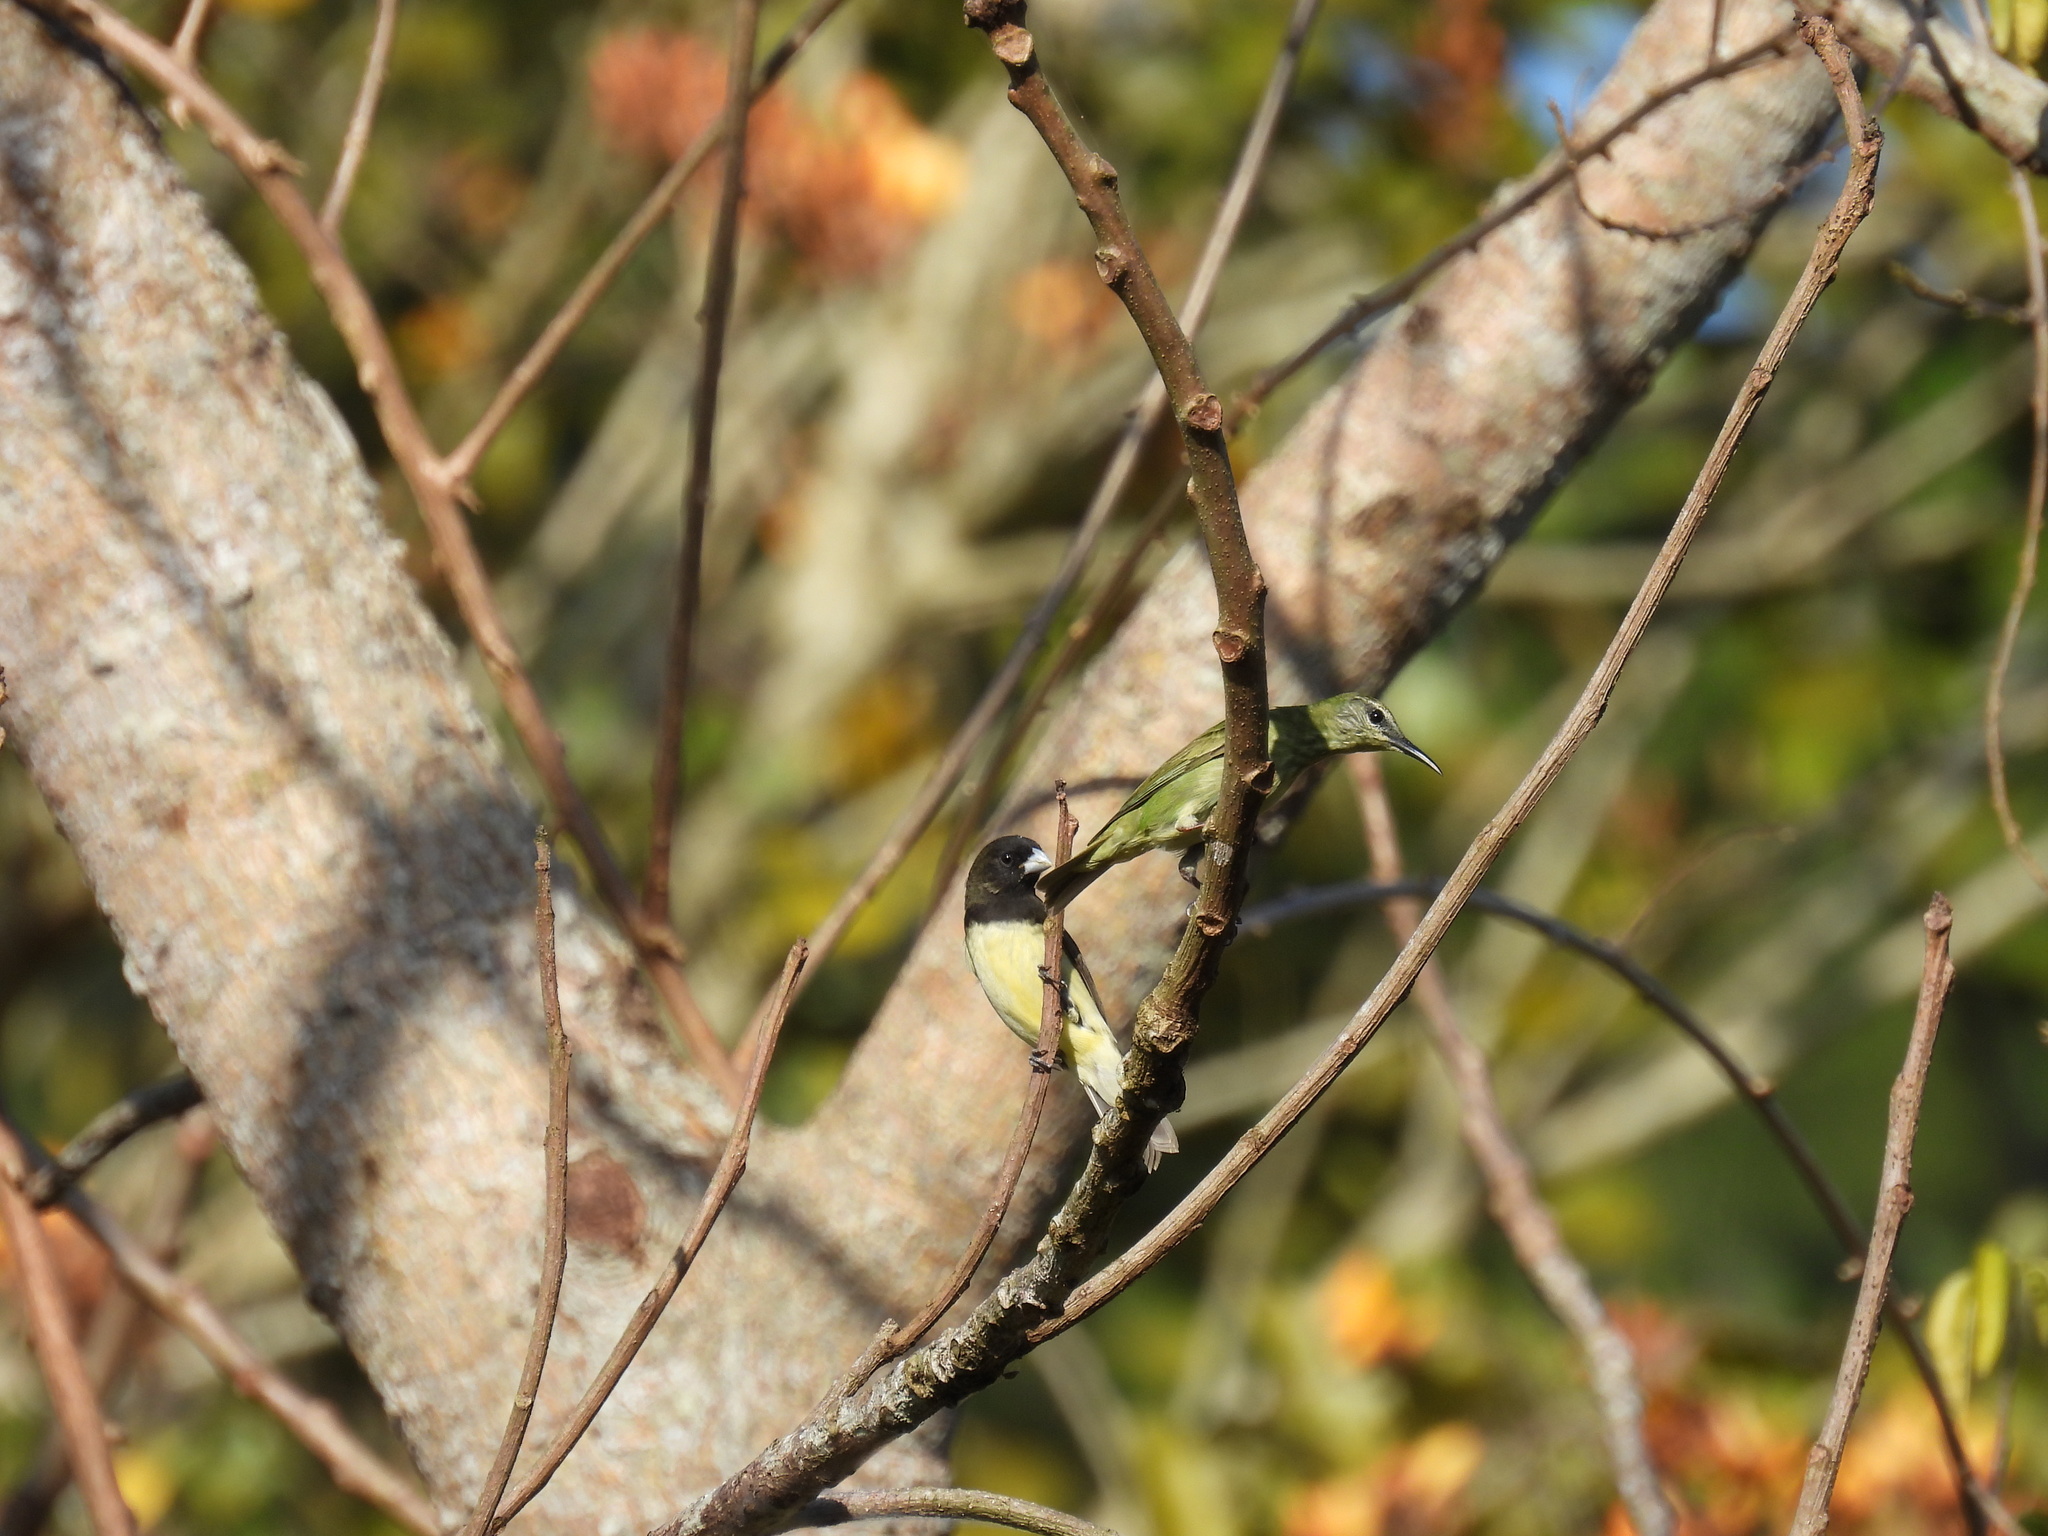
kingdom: Animalia
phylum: Chordata
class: Aves
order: Passeriformes
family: Thraupidae
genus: Cyanerpes
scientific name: Cyanerpes cyaneus
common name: Red-legged honeycreeper
